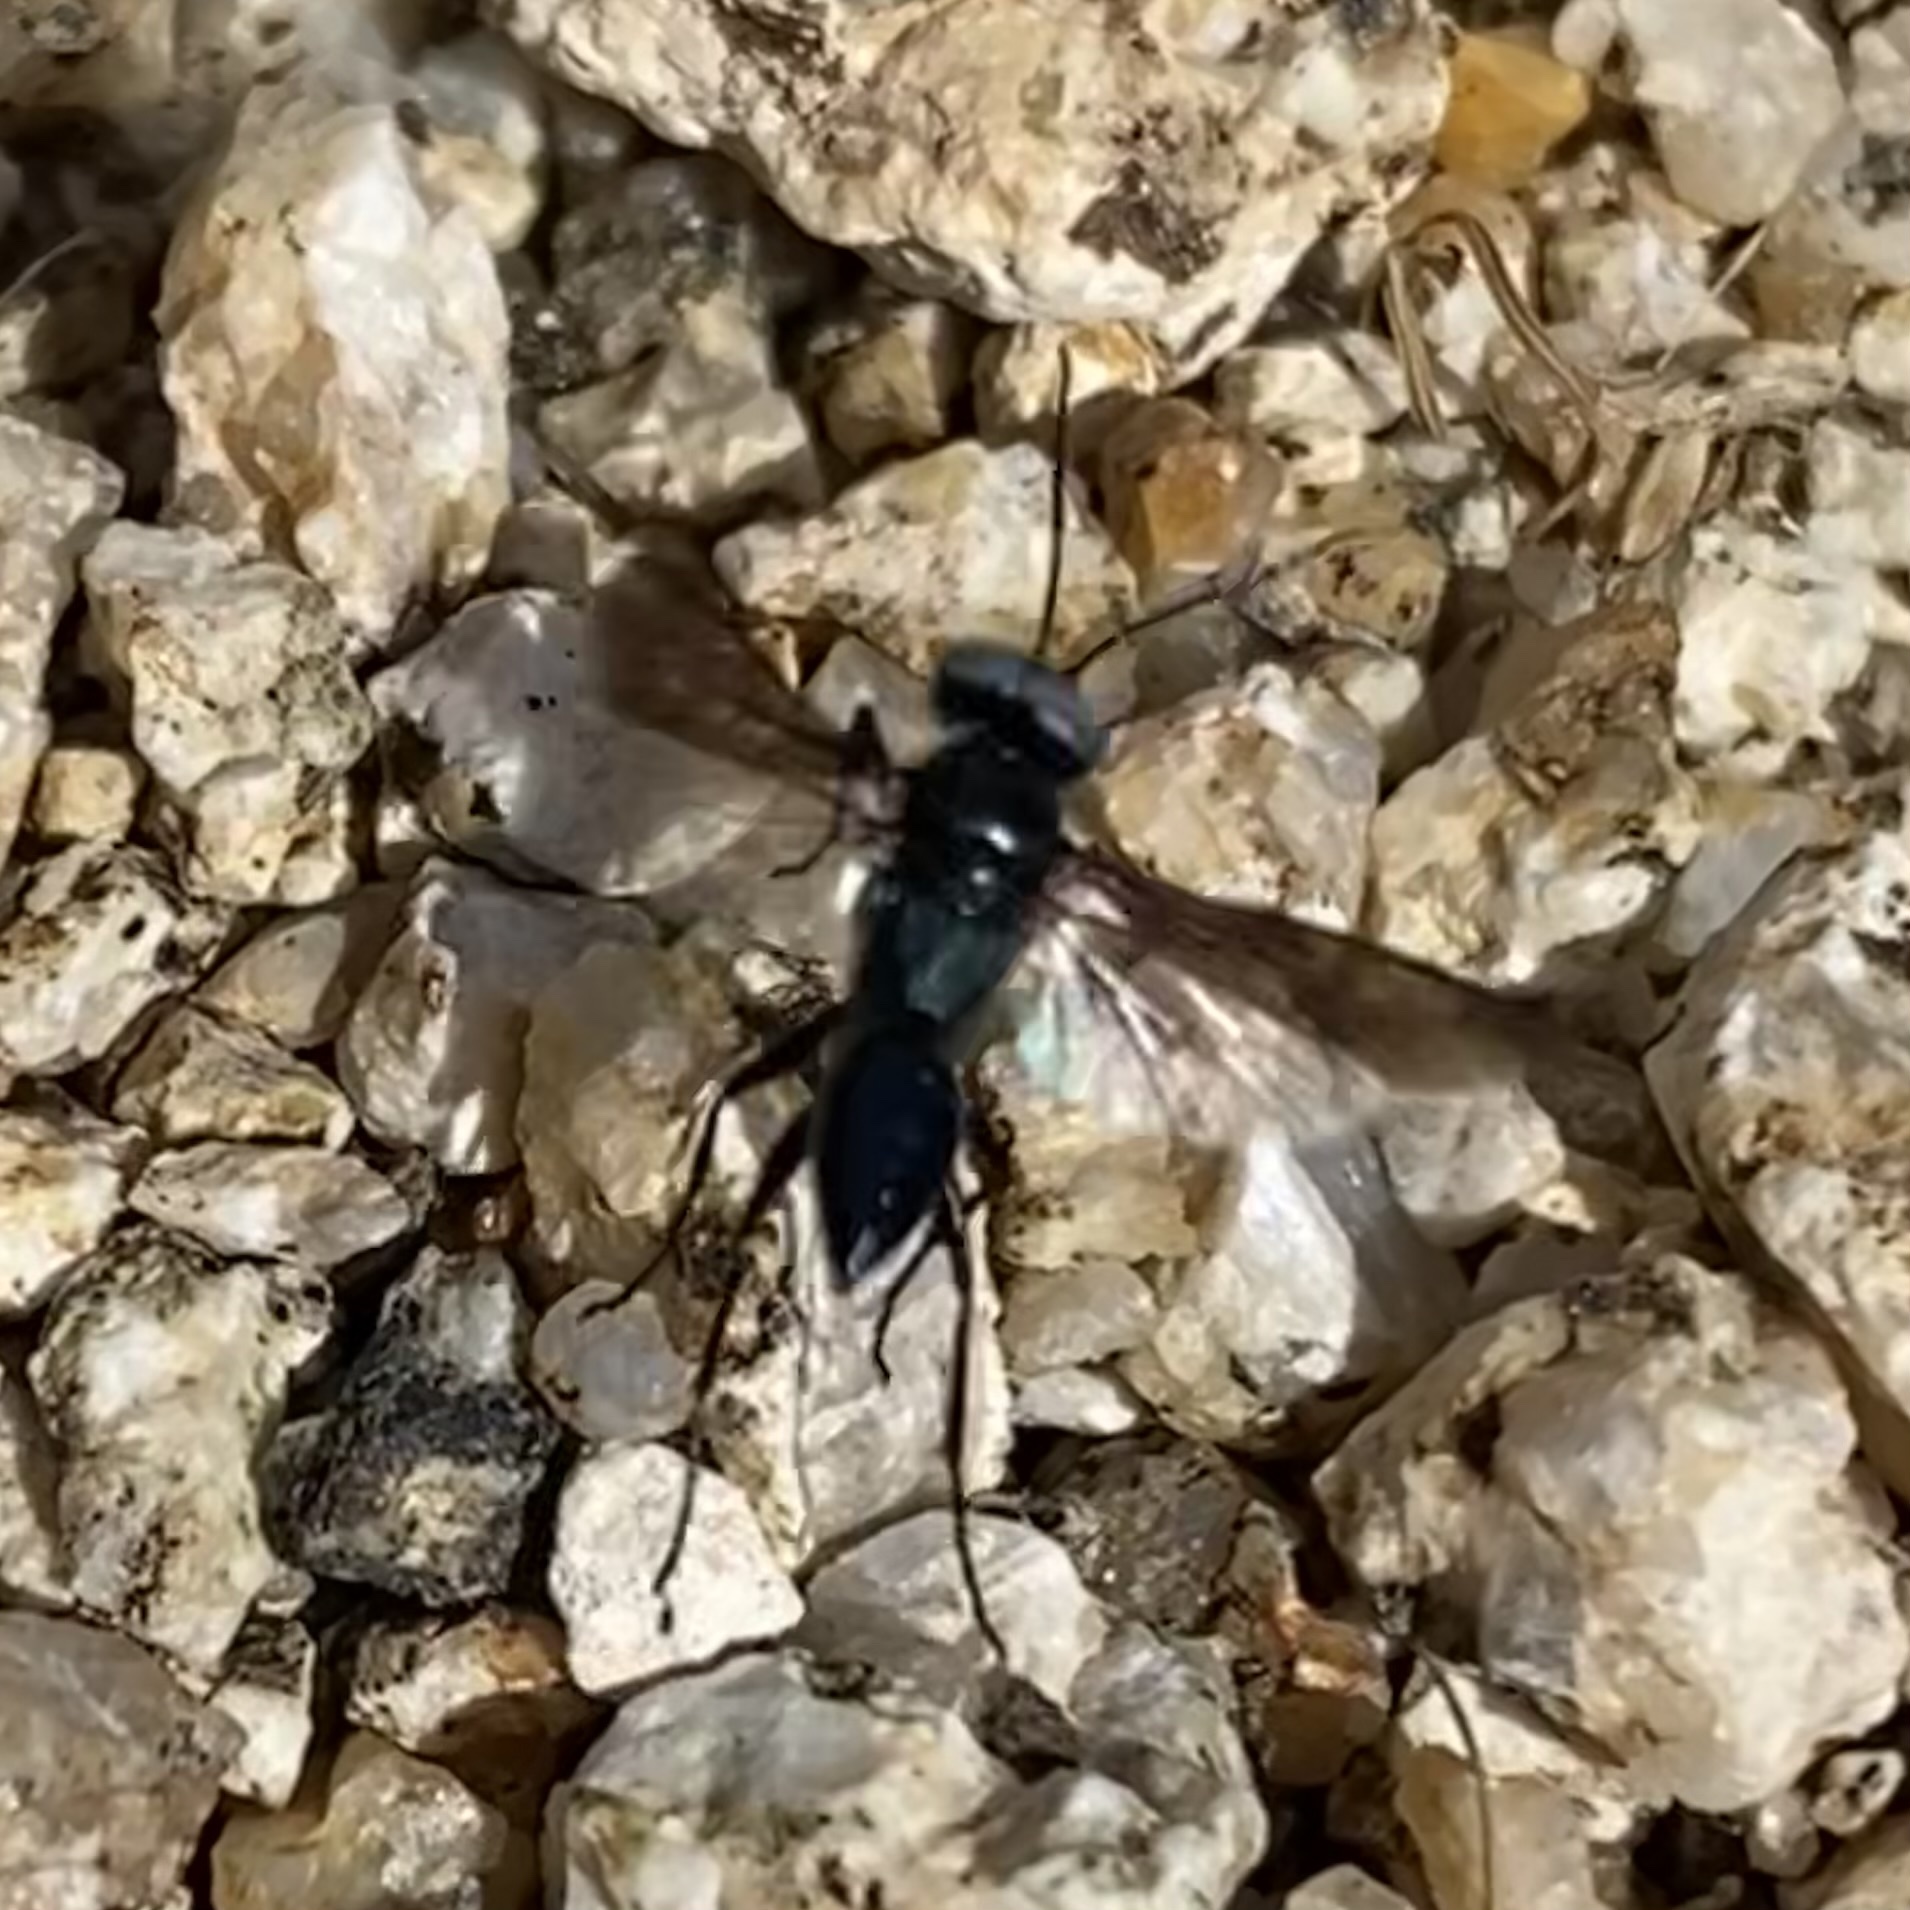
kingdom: Animalia
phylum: Arthropoda
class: Insecta
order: Hymenoptera
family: Crabronidae
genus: Dryudella
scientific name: Dryudella
